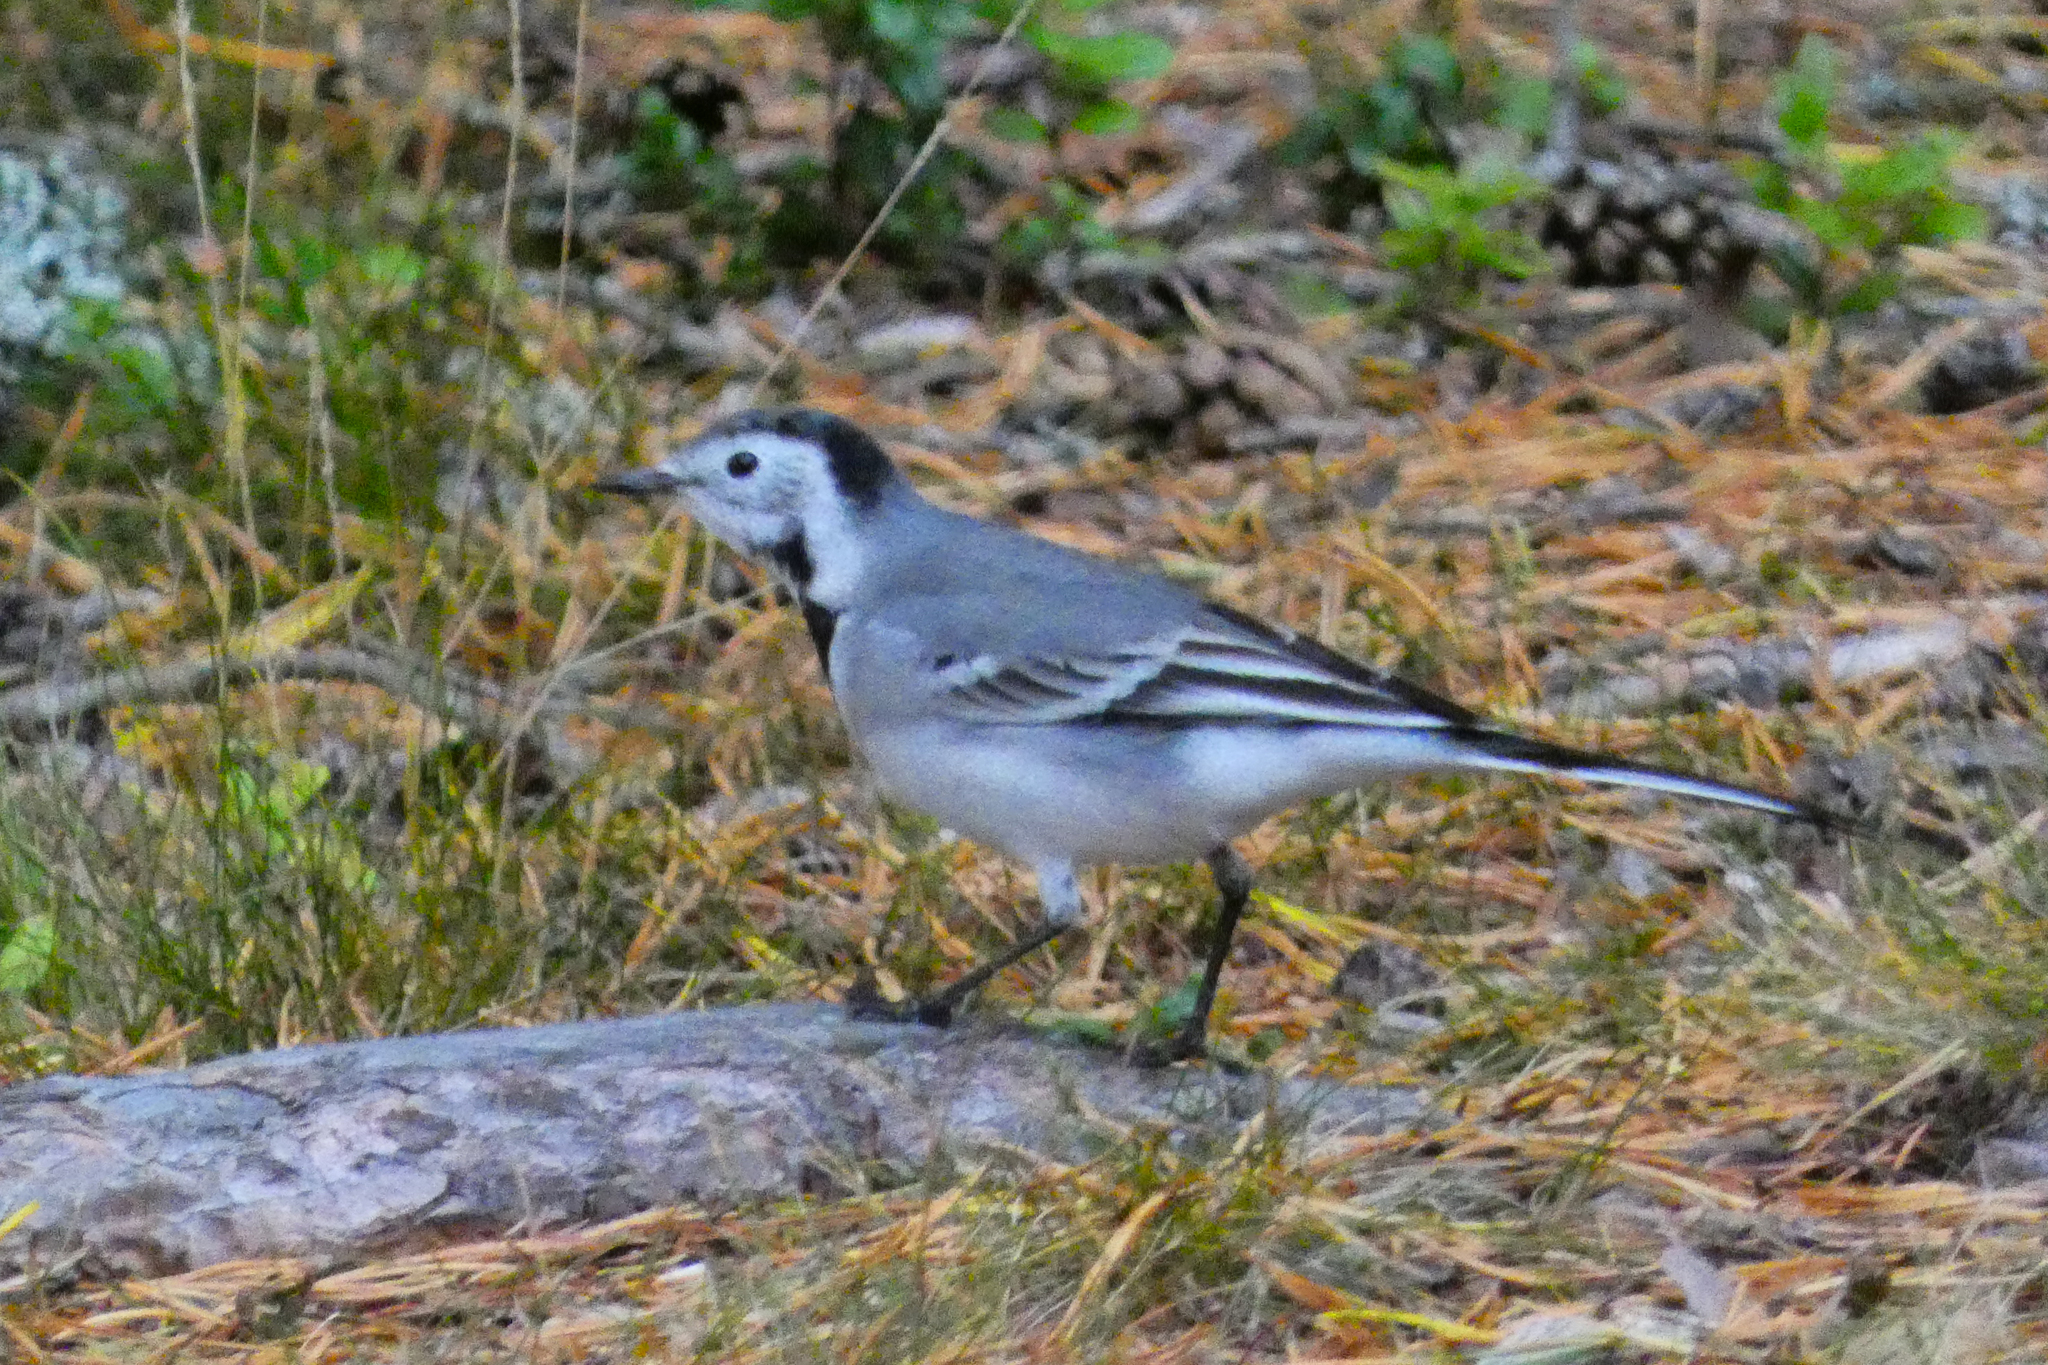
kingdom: Animalia
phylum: Chordata
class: Aves
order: Passeriformes
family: Motacillidae
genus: Motacilla
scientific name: Motacilla alba
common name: White wagtail
